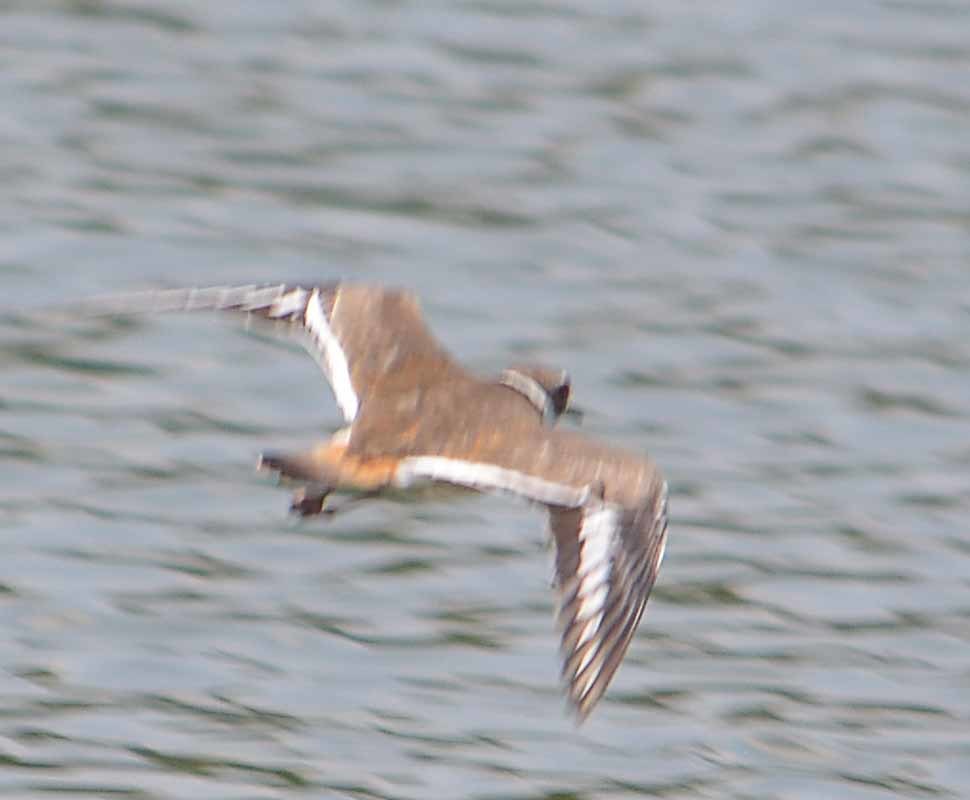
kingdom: Animalia
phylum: Chordata
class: Aves
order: Charadriiformes
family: Charadriidae
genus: Charadrius
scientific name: Charadrius vociferus
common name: Killdeer
